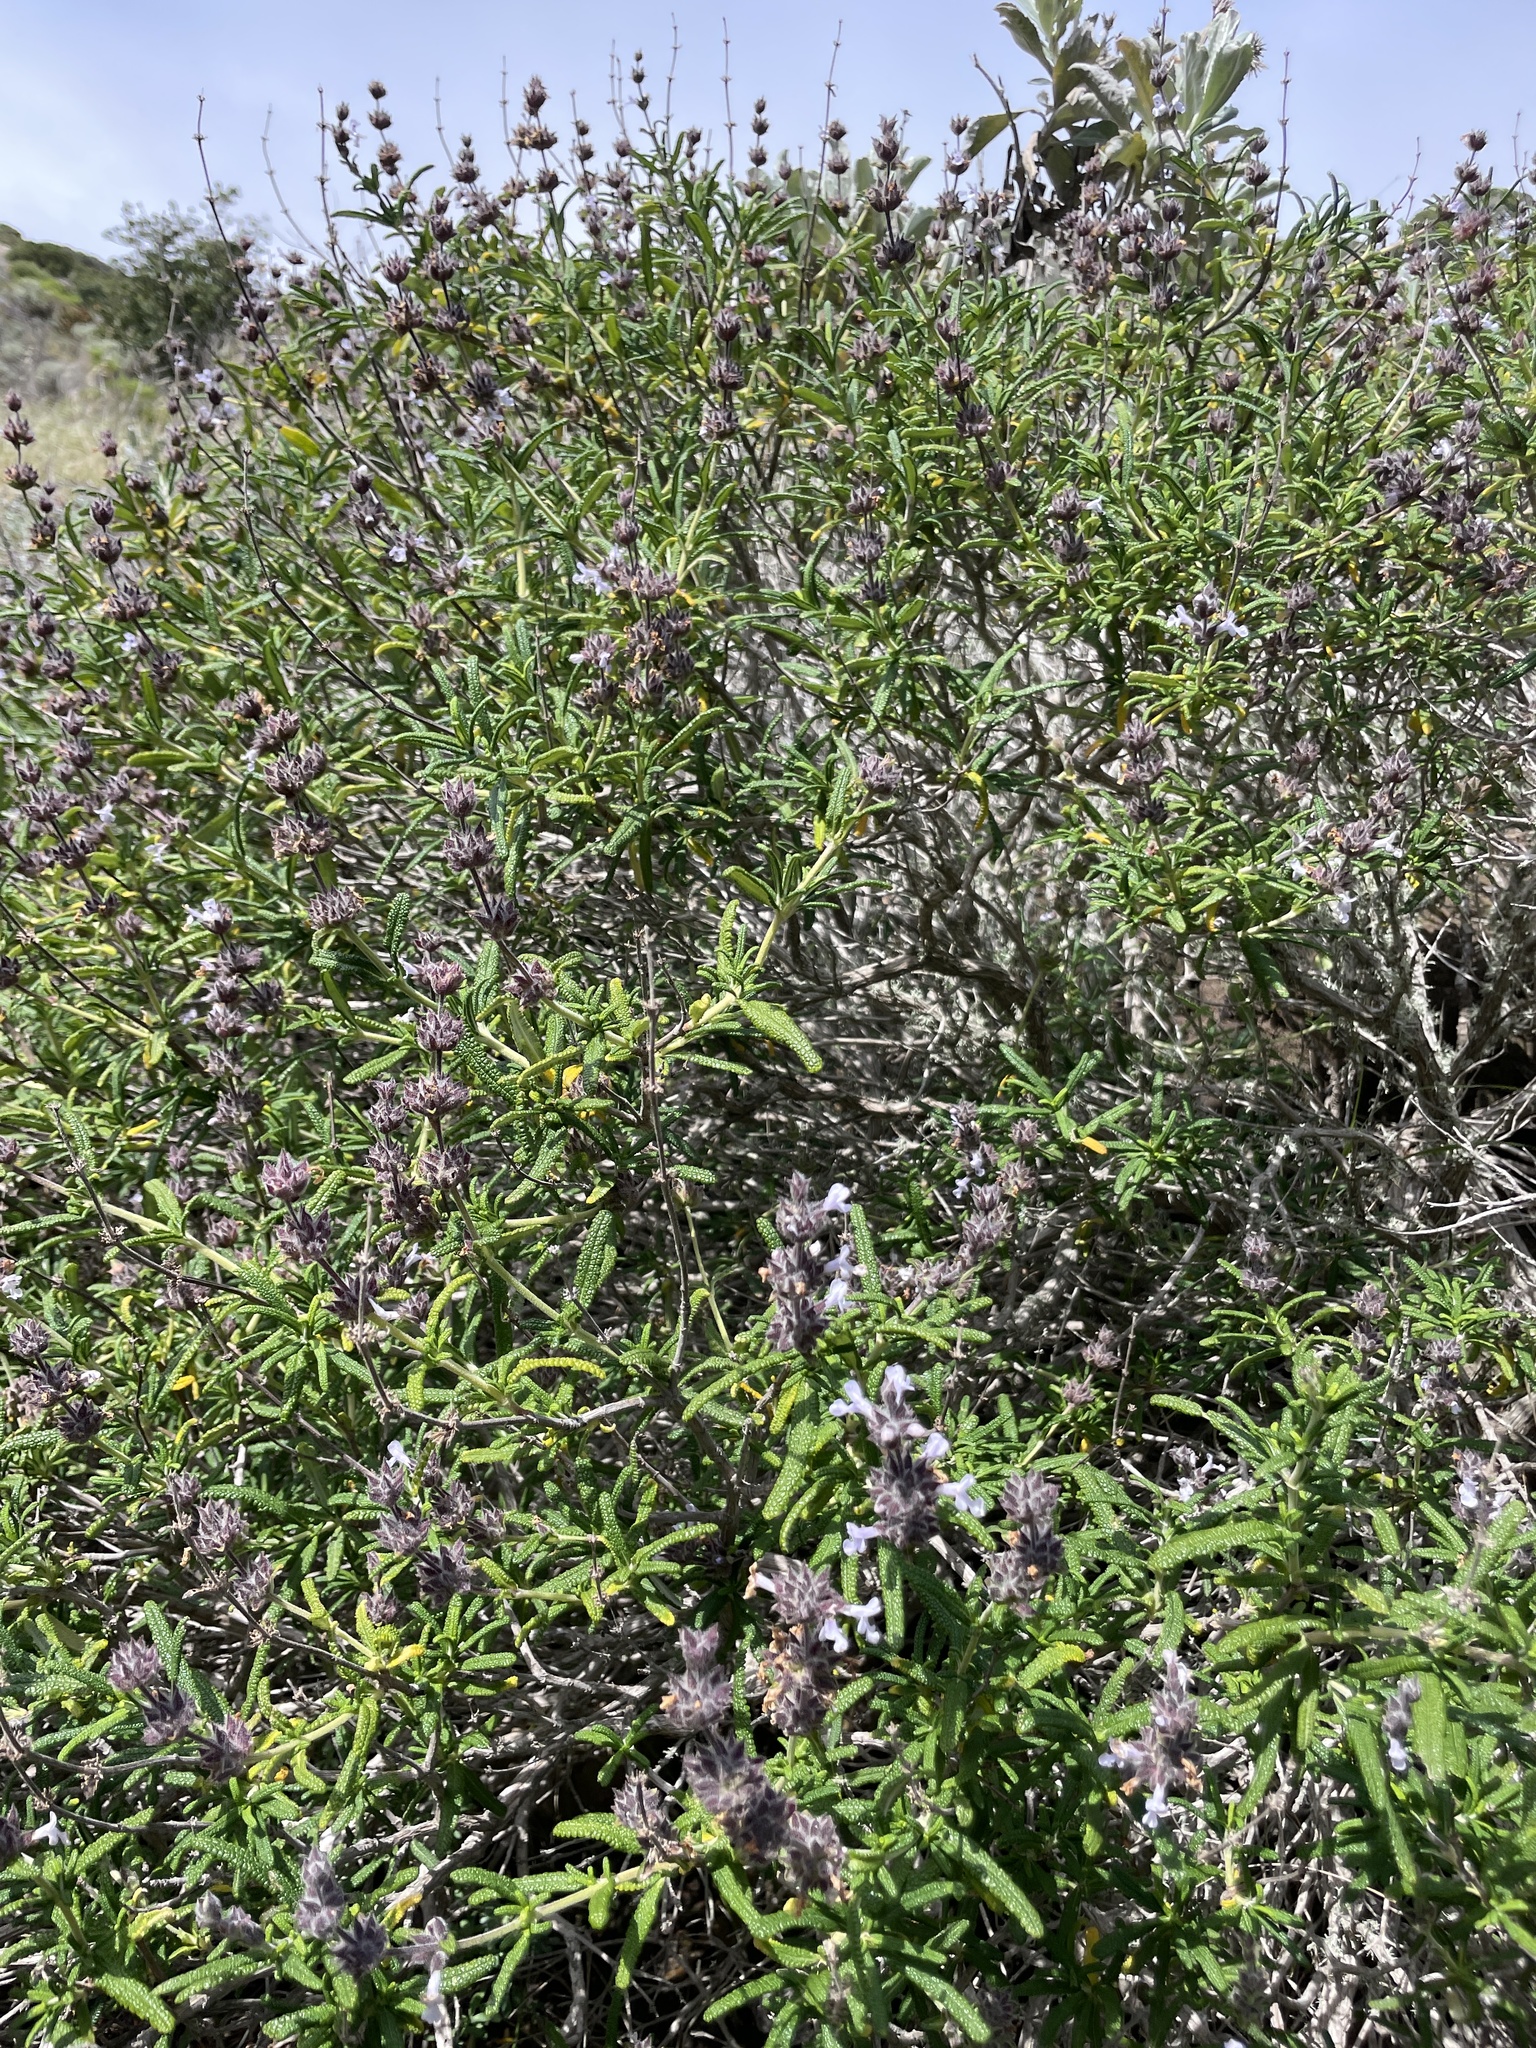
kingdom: Plantae
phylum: Tracheophyta
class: Magnoliopsida
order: Lamiales
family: Lamiaceae
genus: Salvia
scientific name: Salvia brandegeei
